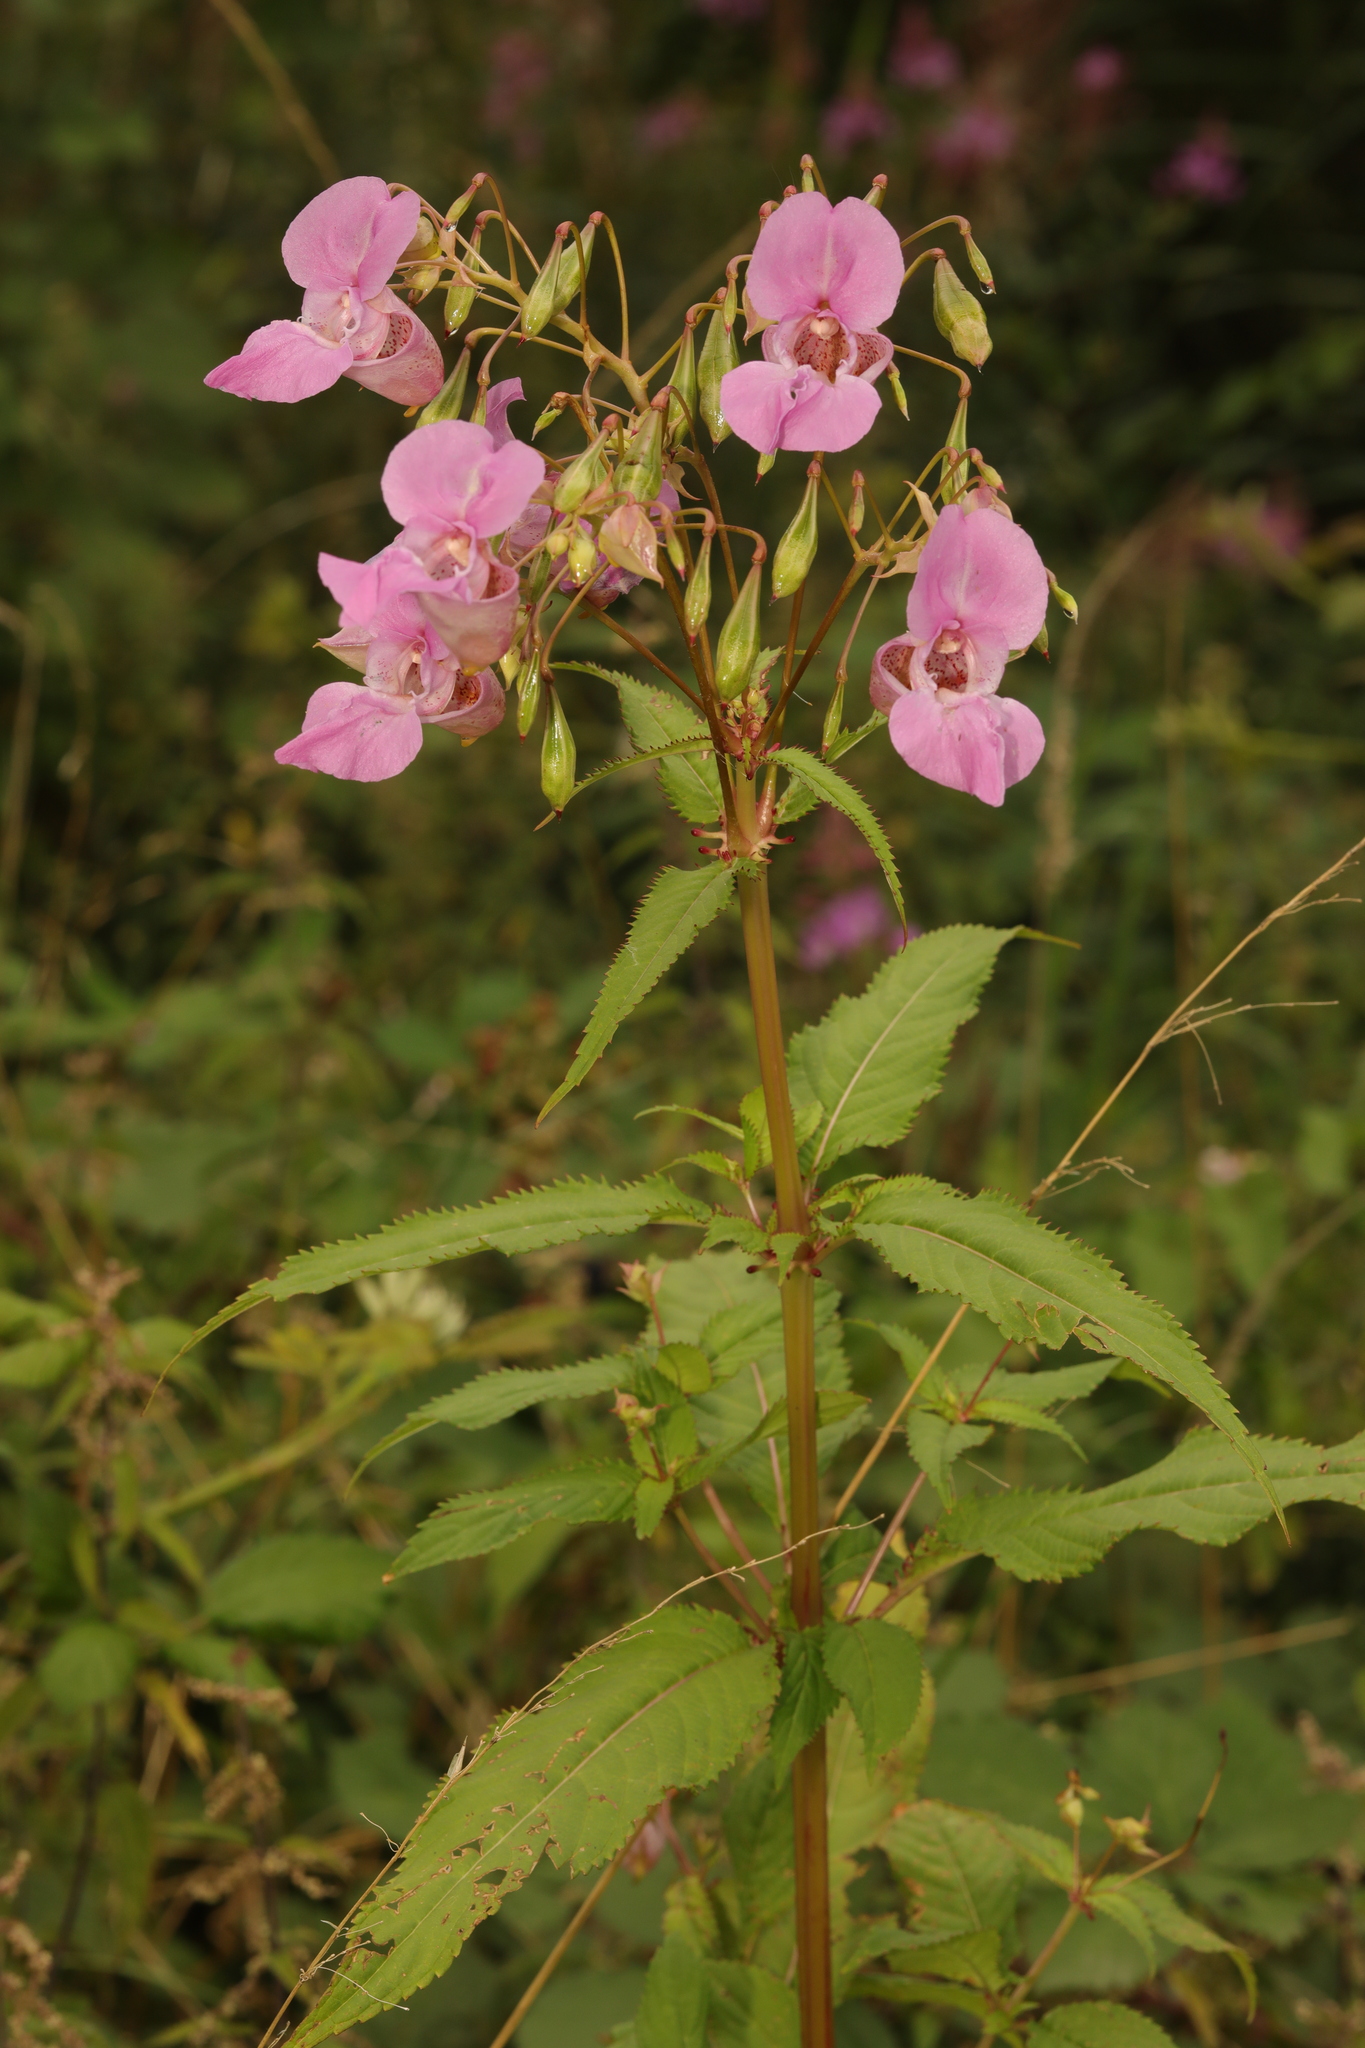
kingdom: Plantae
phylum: Tracheophyta
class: Magnoliopsida
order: Ericales
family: Balsaminaceae
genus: Impatiens
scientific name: Impatiens glandulifera
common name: Himalayan balsam
